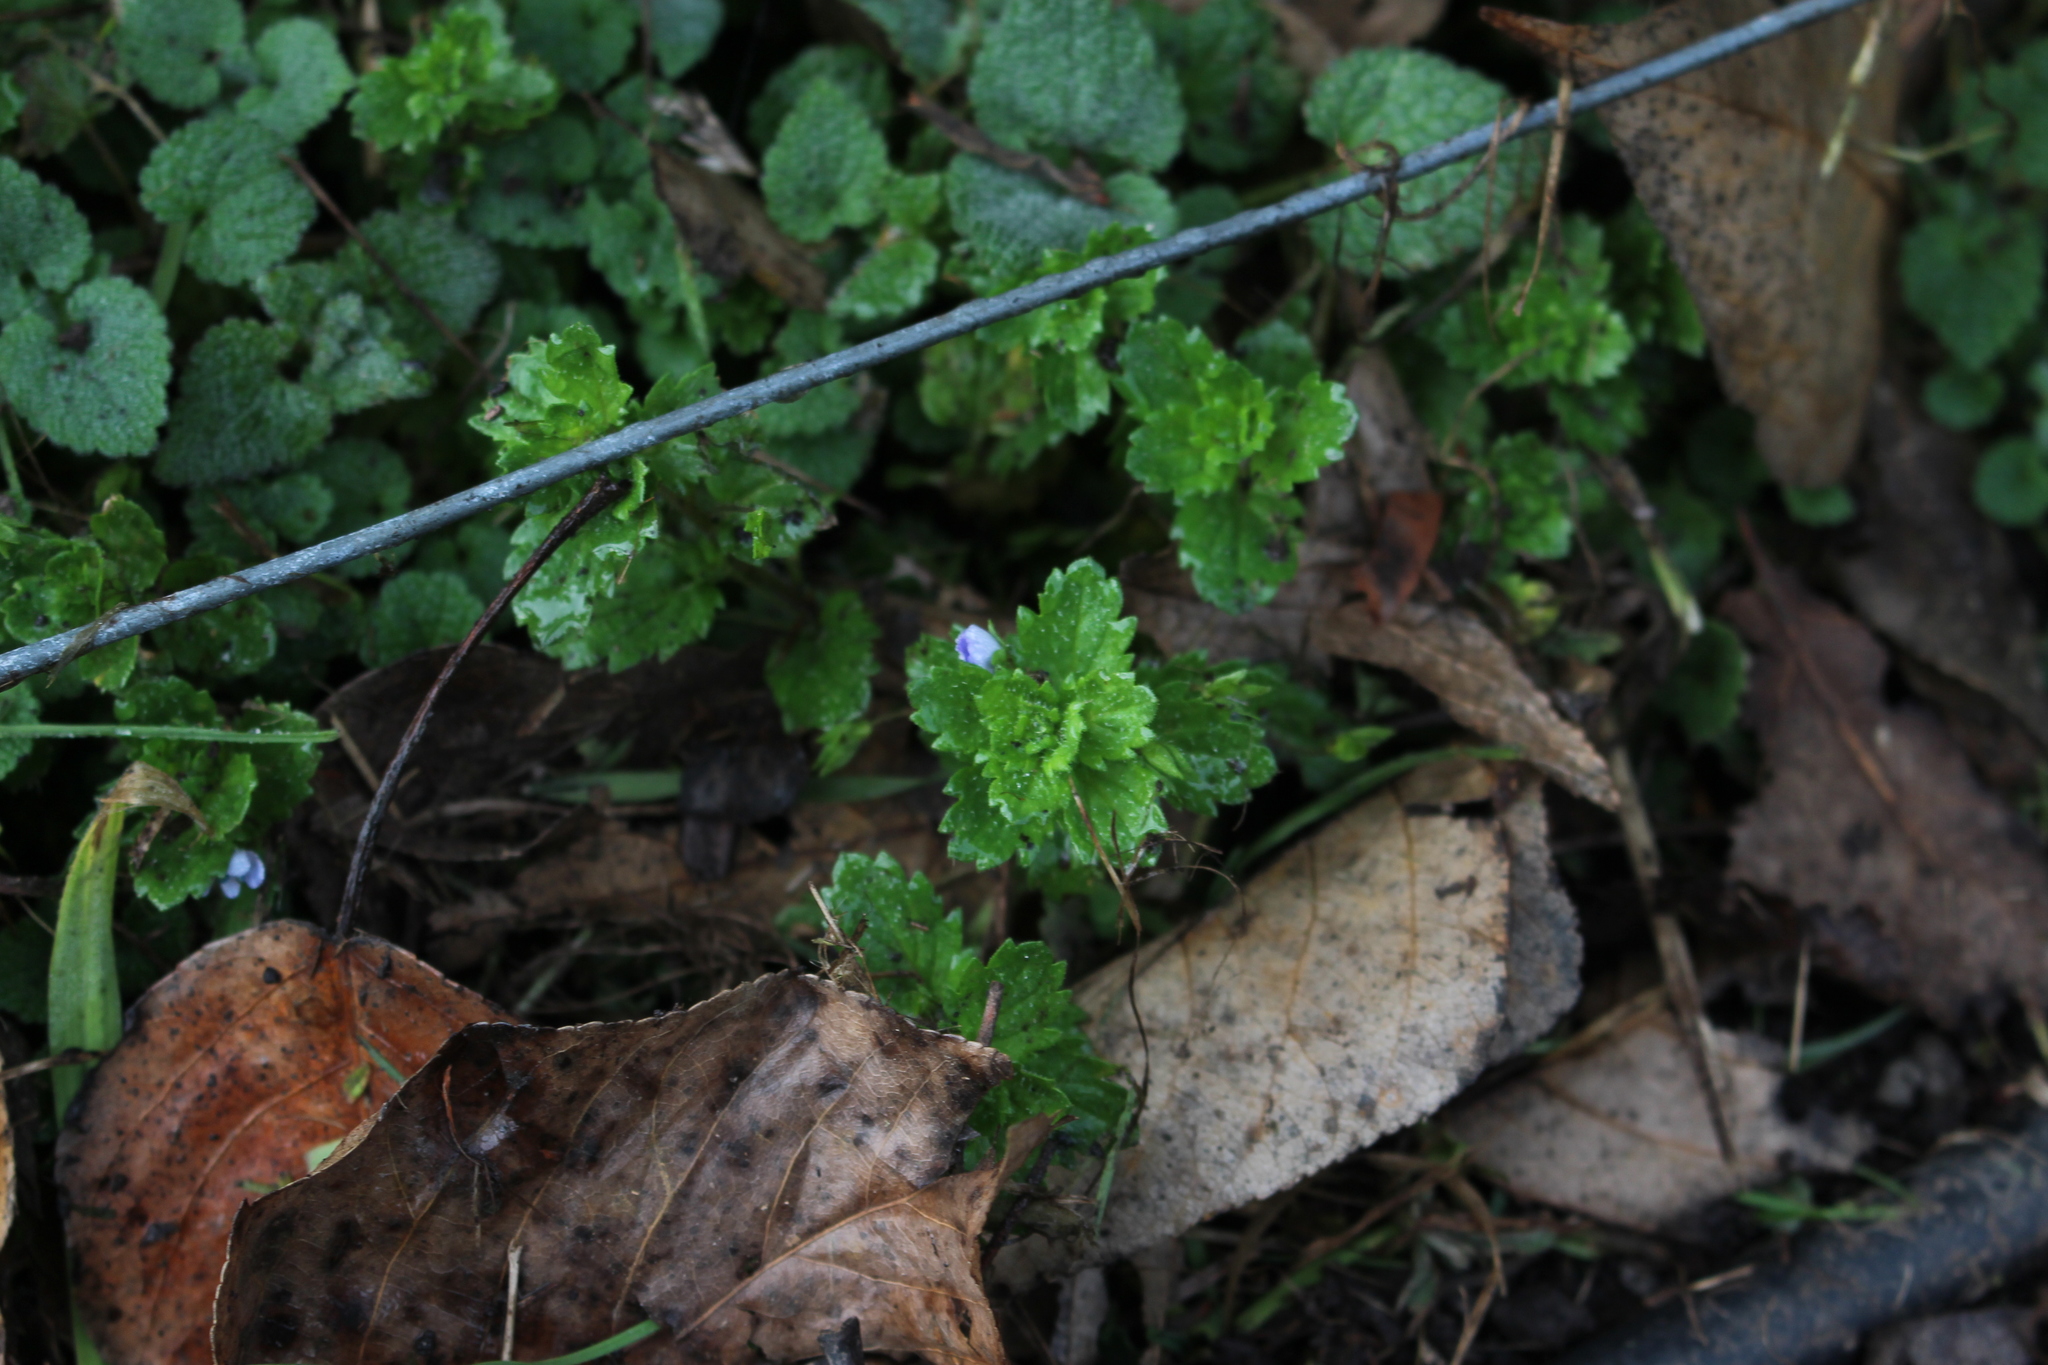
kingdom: Plantae
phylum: Tracheophyta
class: Magnoliopsida
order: Lamiales
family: Plantaginaceae
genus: Veronica
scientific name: Veronica persica
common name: Common field-speedwell
